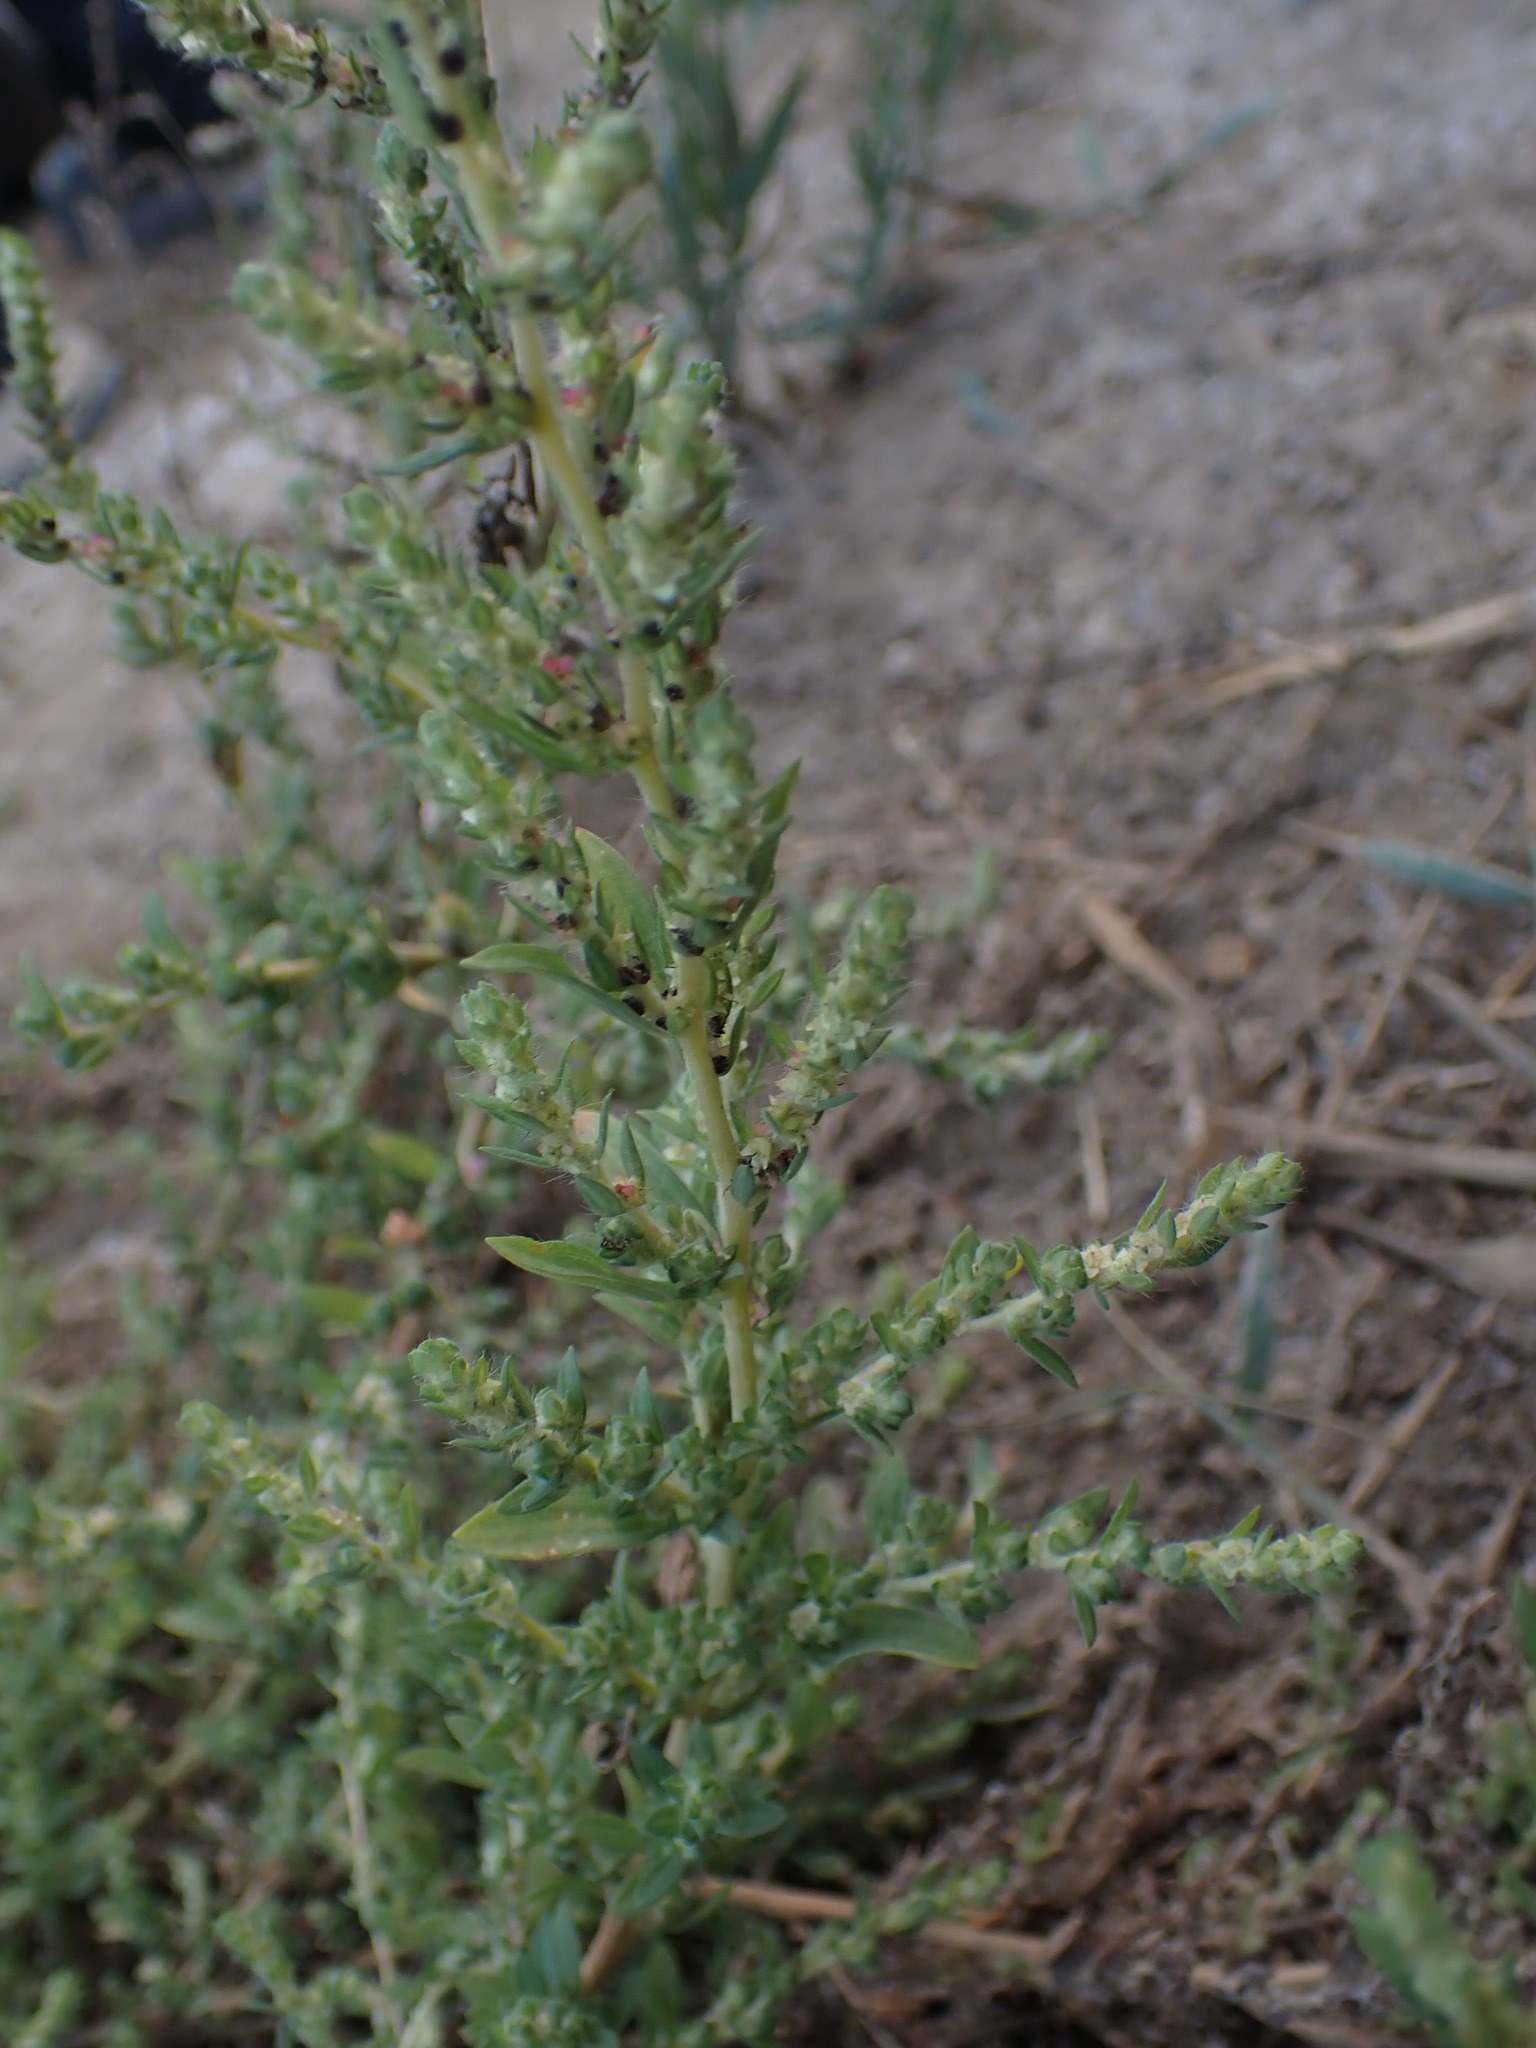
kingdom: Plantae
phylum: Tracheophyta
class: Magnoliopsida
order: Caryophyllales
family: Amaranthaceae
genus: Bassia
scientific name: Bassia scoparia
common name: Belvedere
